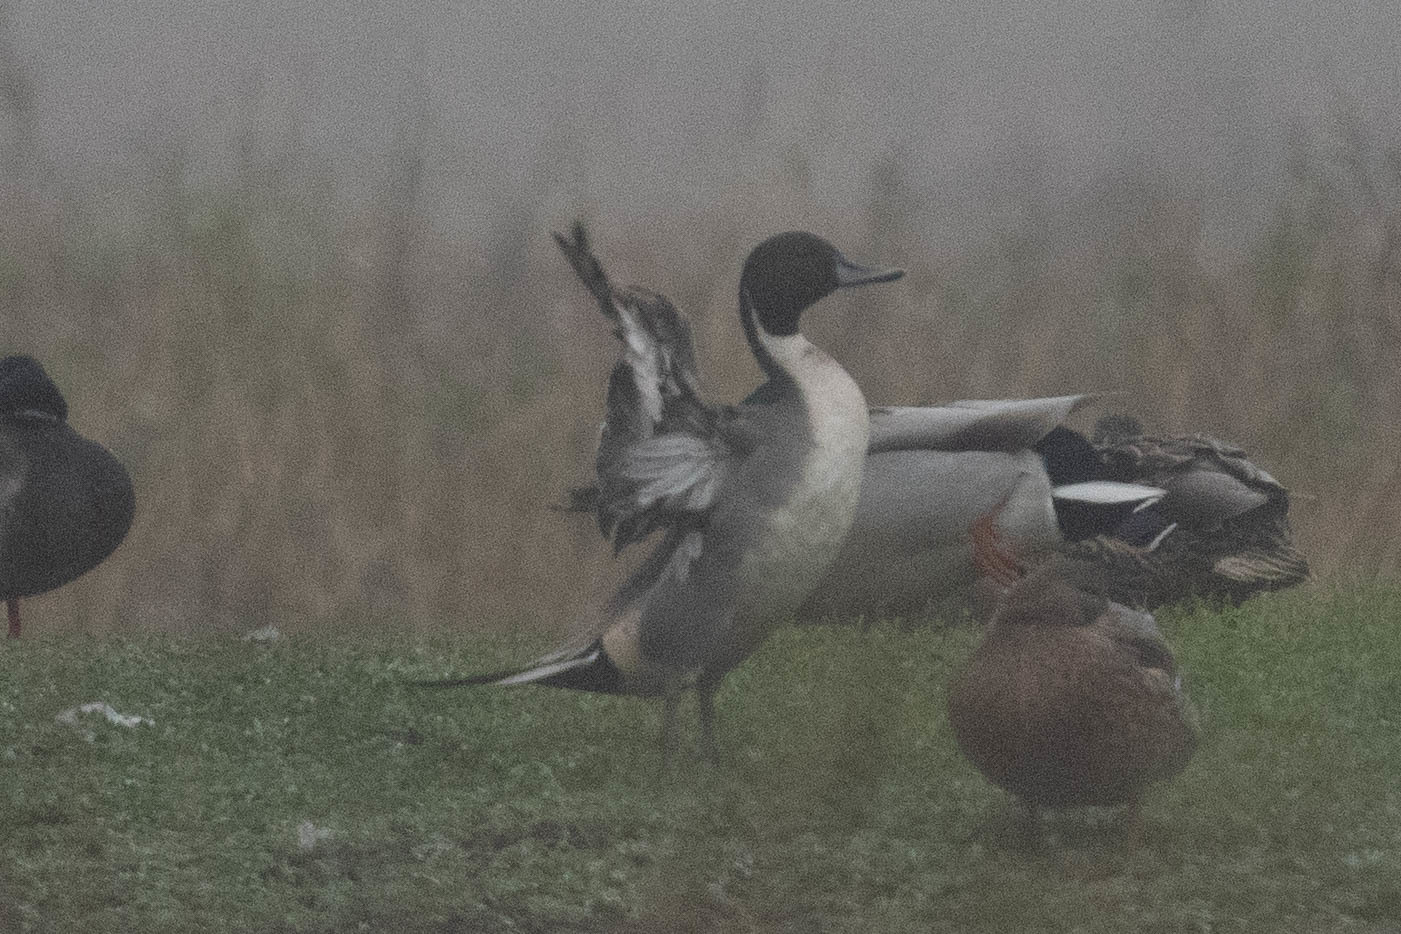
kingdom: Animalia
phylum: Chordata
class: Aves
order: Anseriformes
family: Anatidae
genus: Anas
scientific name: Anas acuta
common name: Northern pintail
